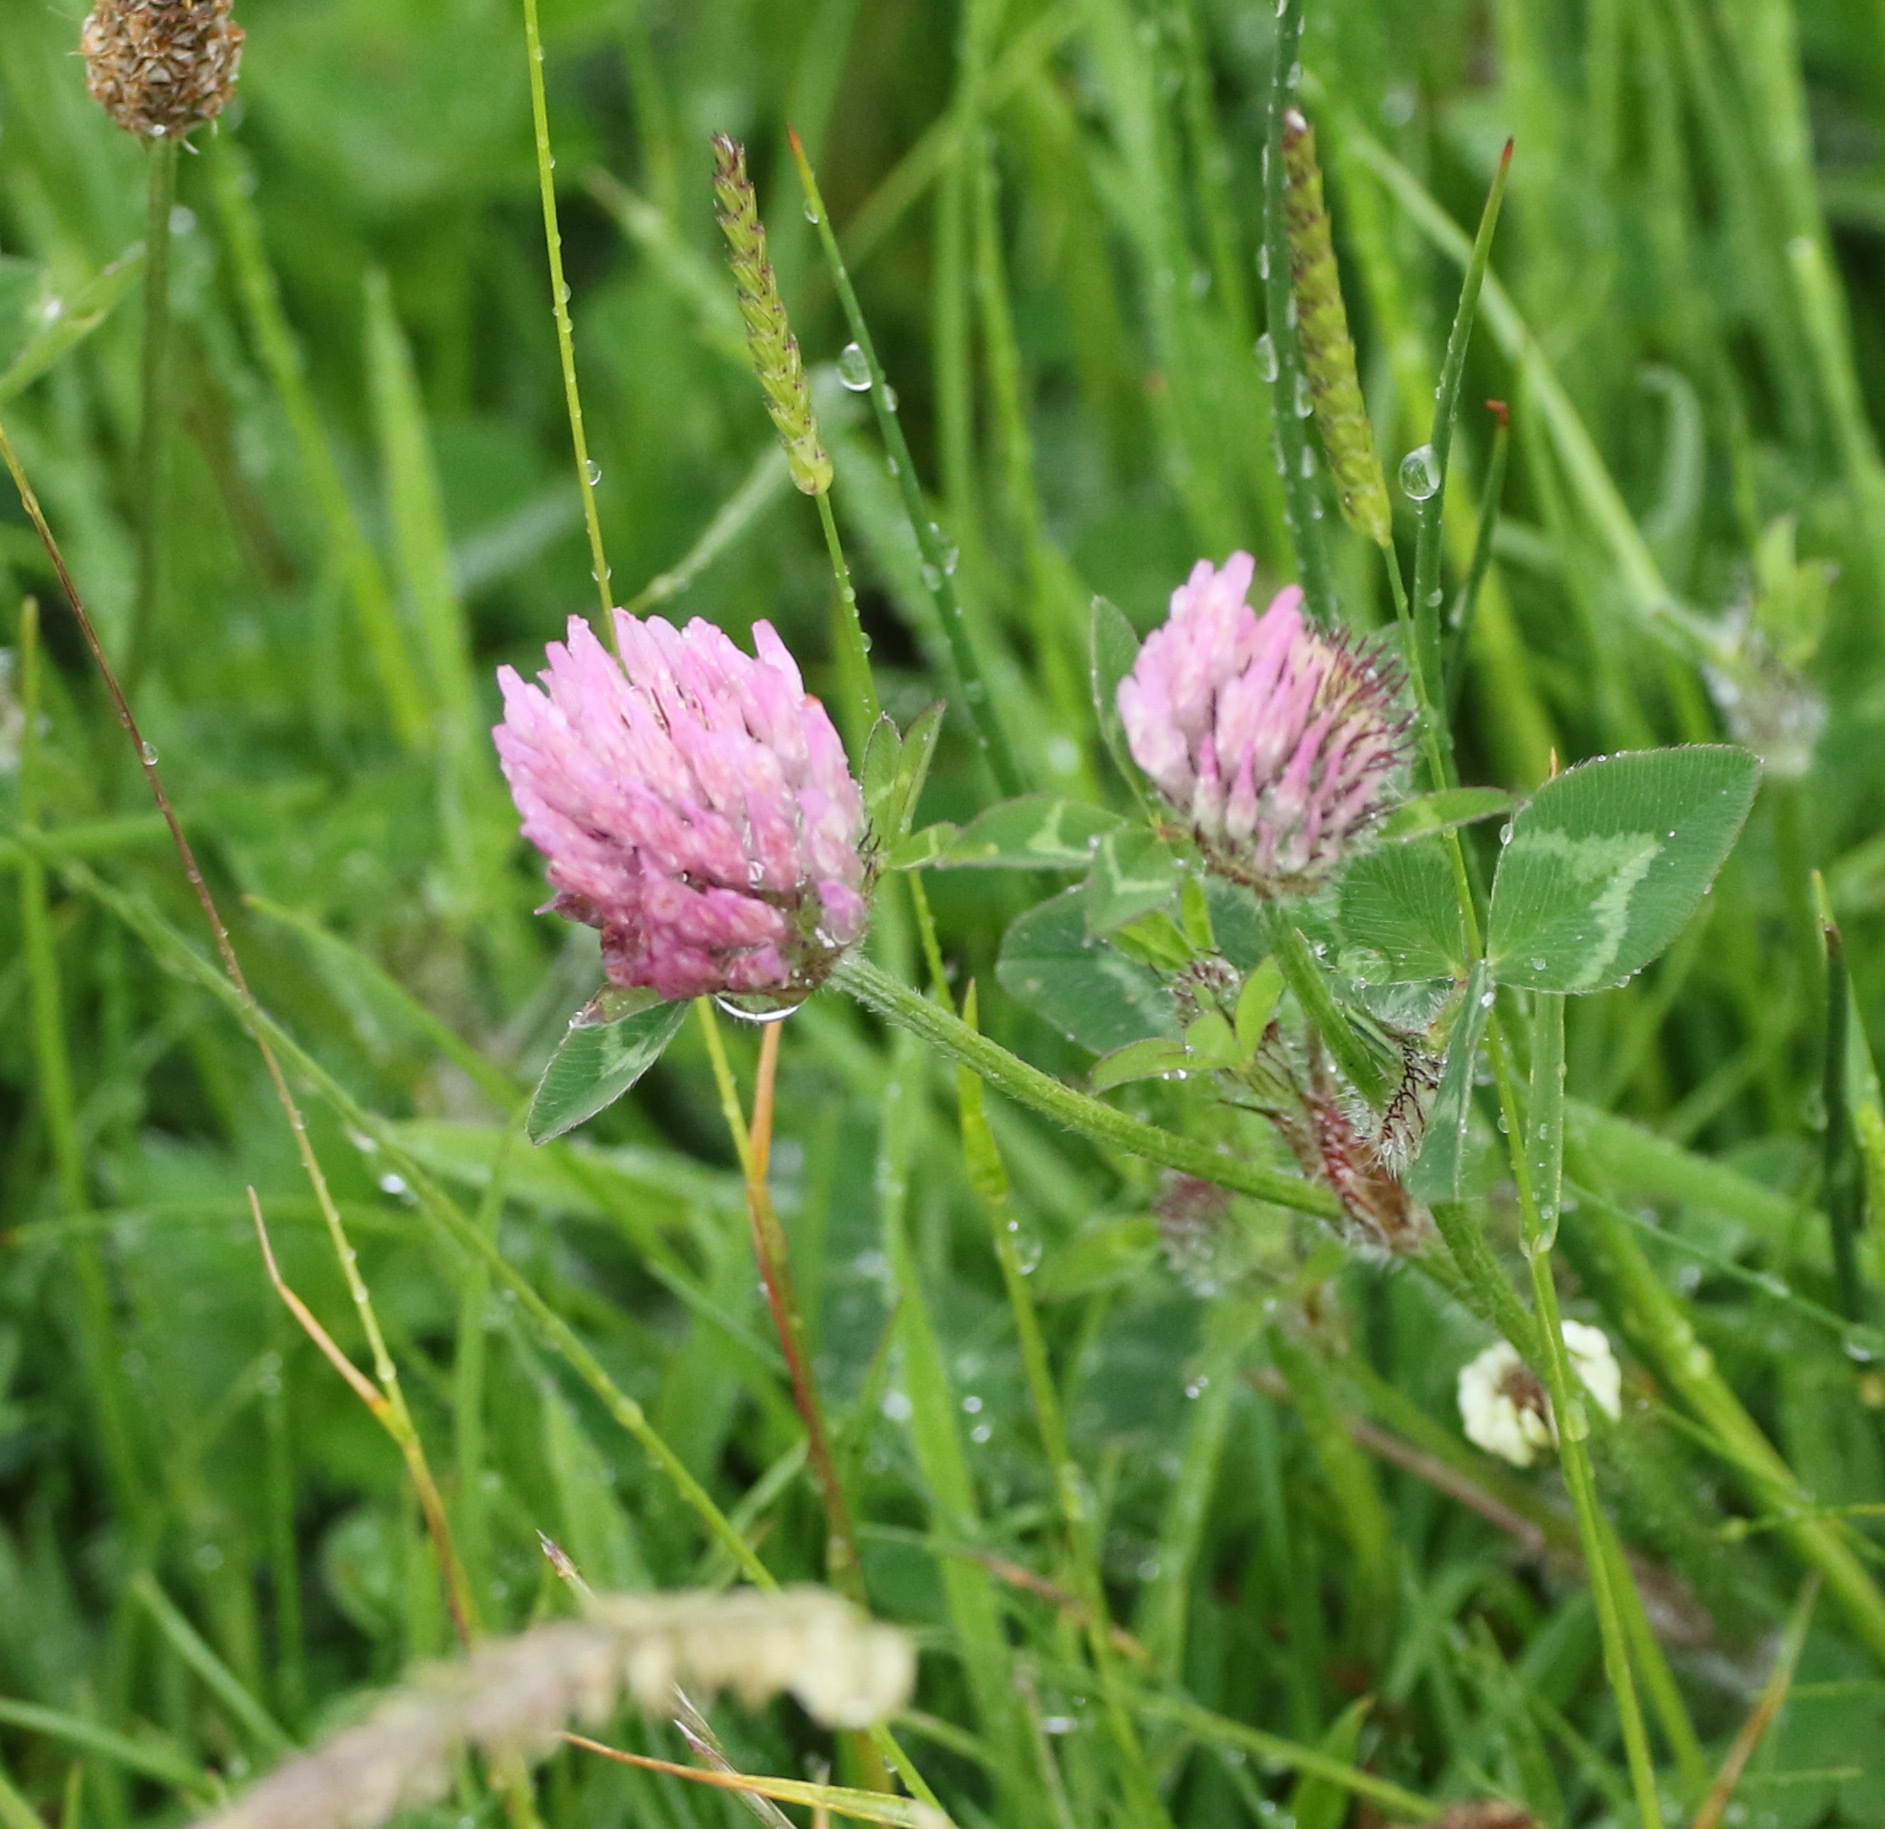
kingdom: Plantae
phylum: Tracheophyta
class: Magnoliopsida
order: Fabales
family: Fabaceae
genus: Trifolium
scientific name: Trifolium pratense
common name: Red clover
